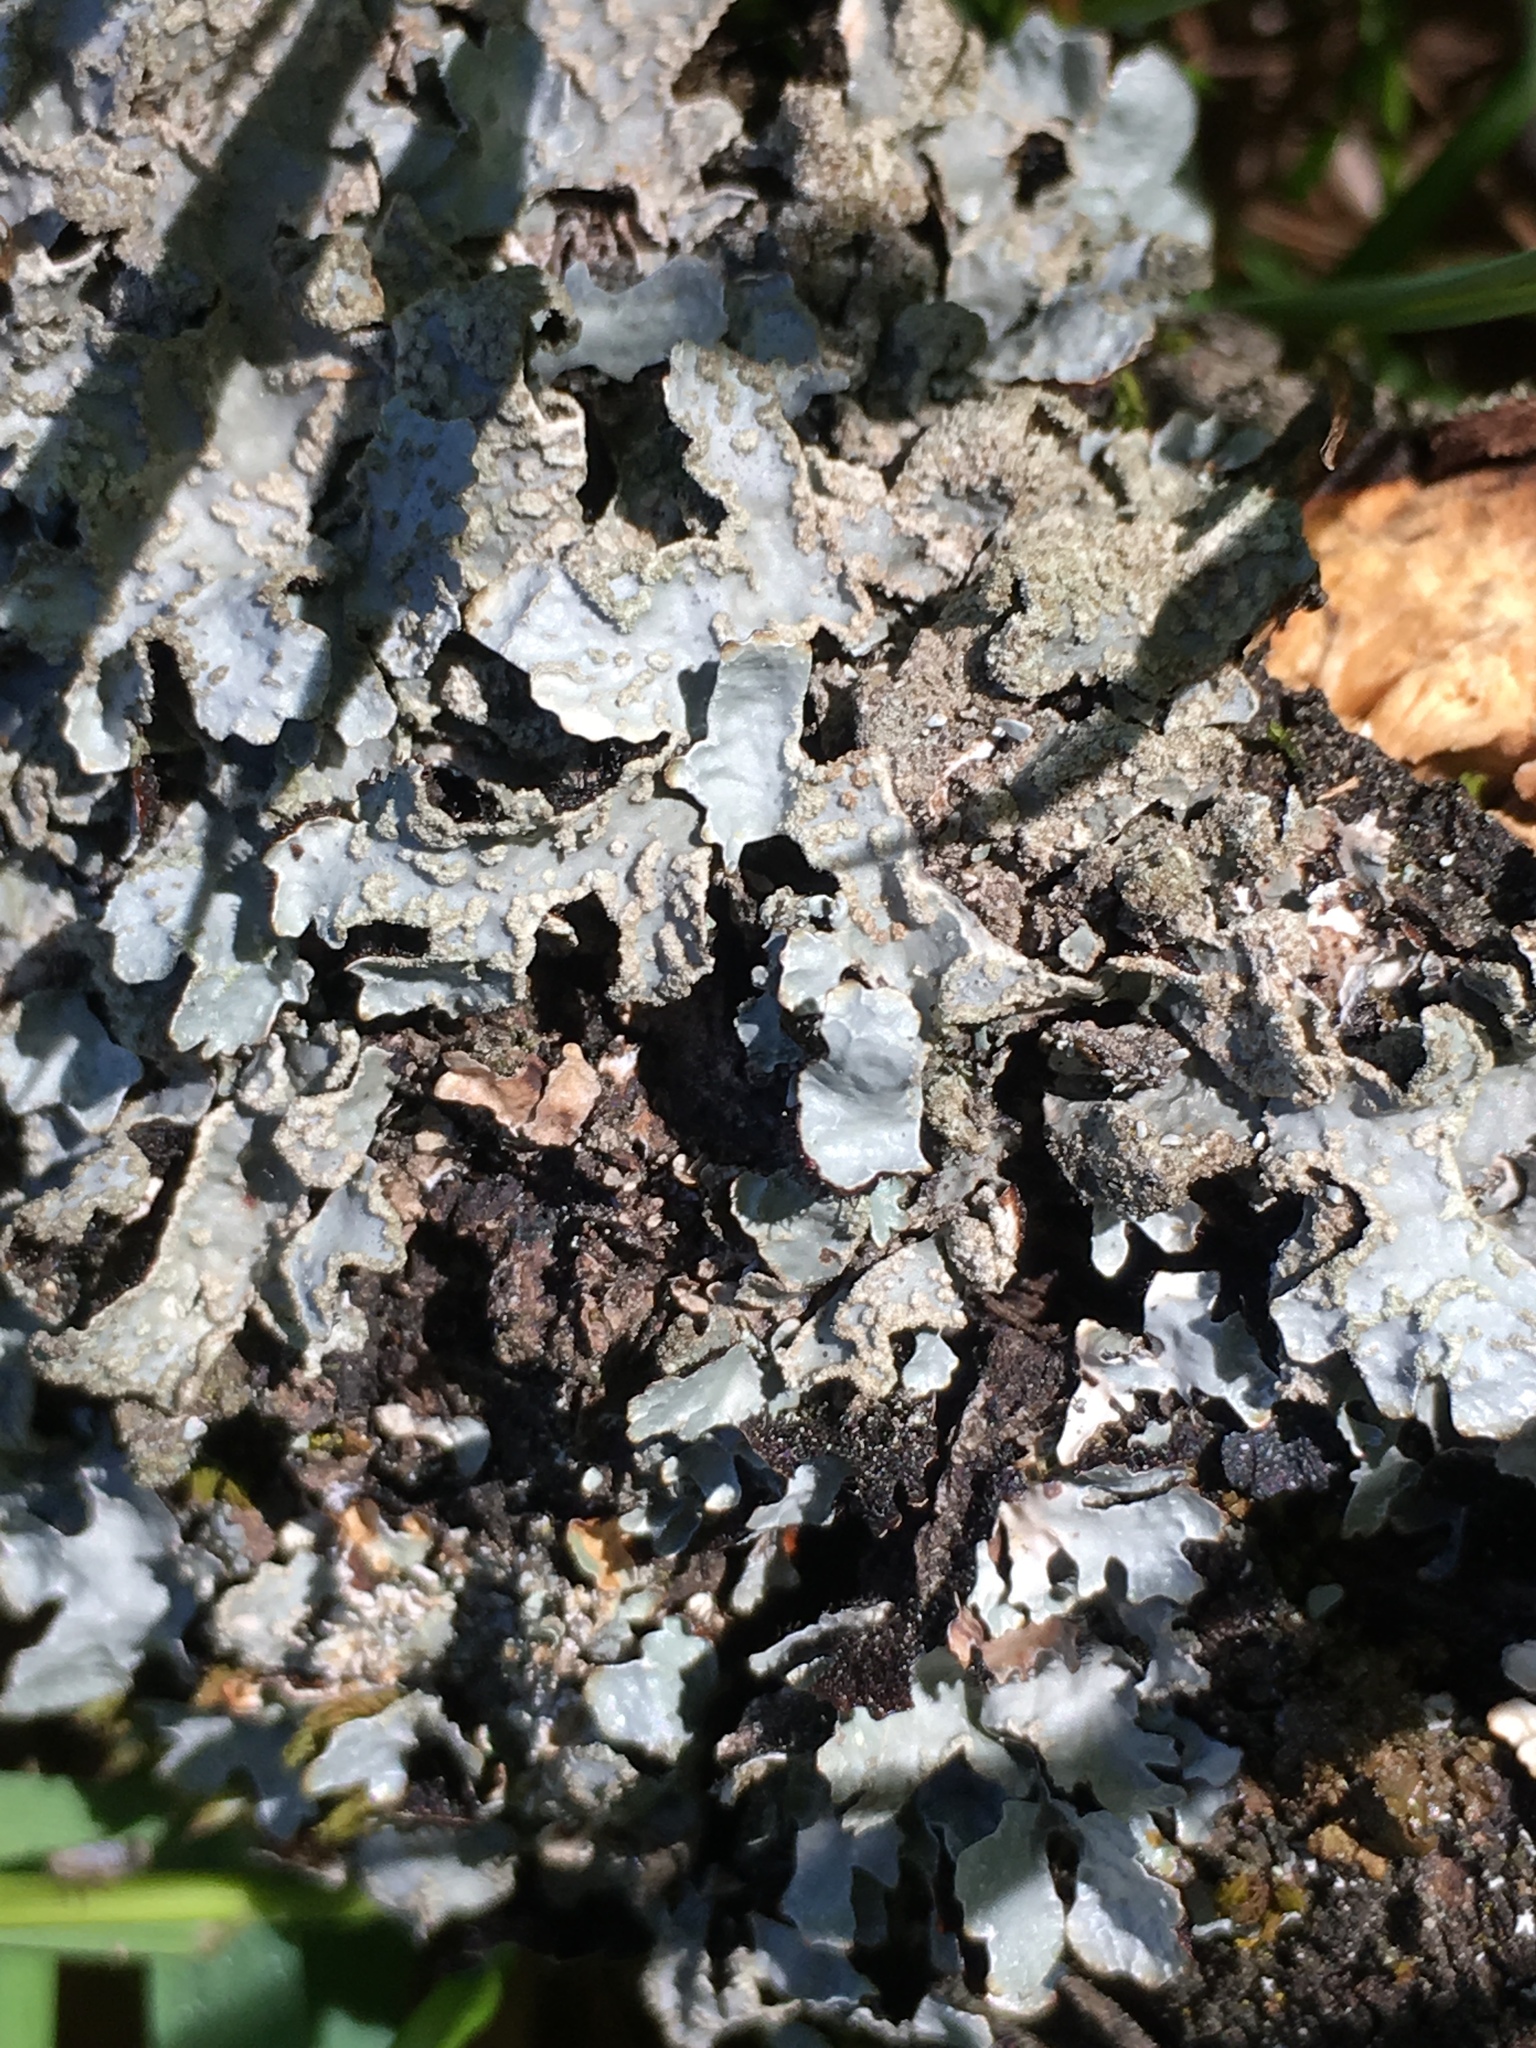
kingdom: Fungi
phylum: Ascomycota
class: Lecanoromycetes
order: Lecanorales
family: Parmeliaceae
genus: Parmelia
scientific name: Parmelia sulcata
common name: Netted shield lichen
